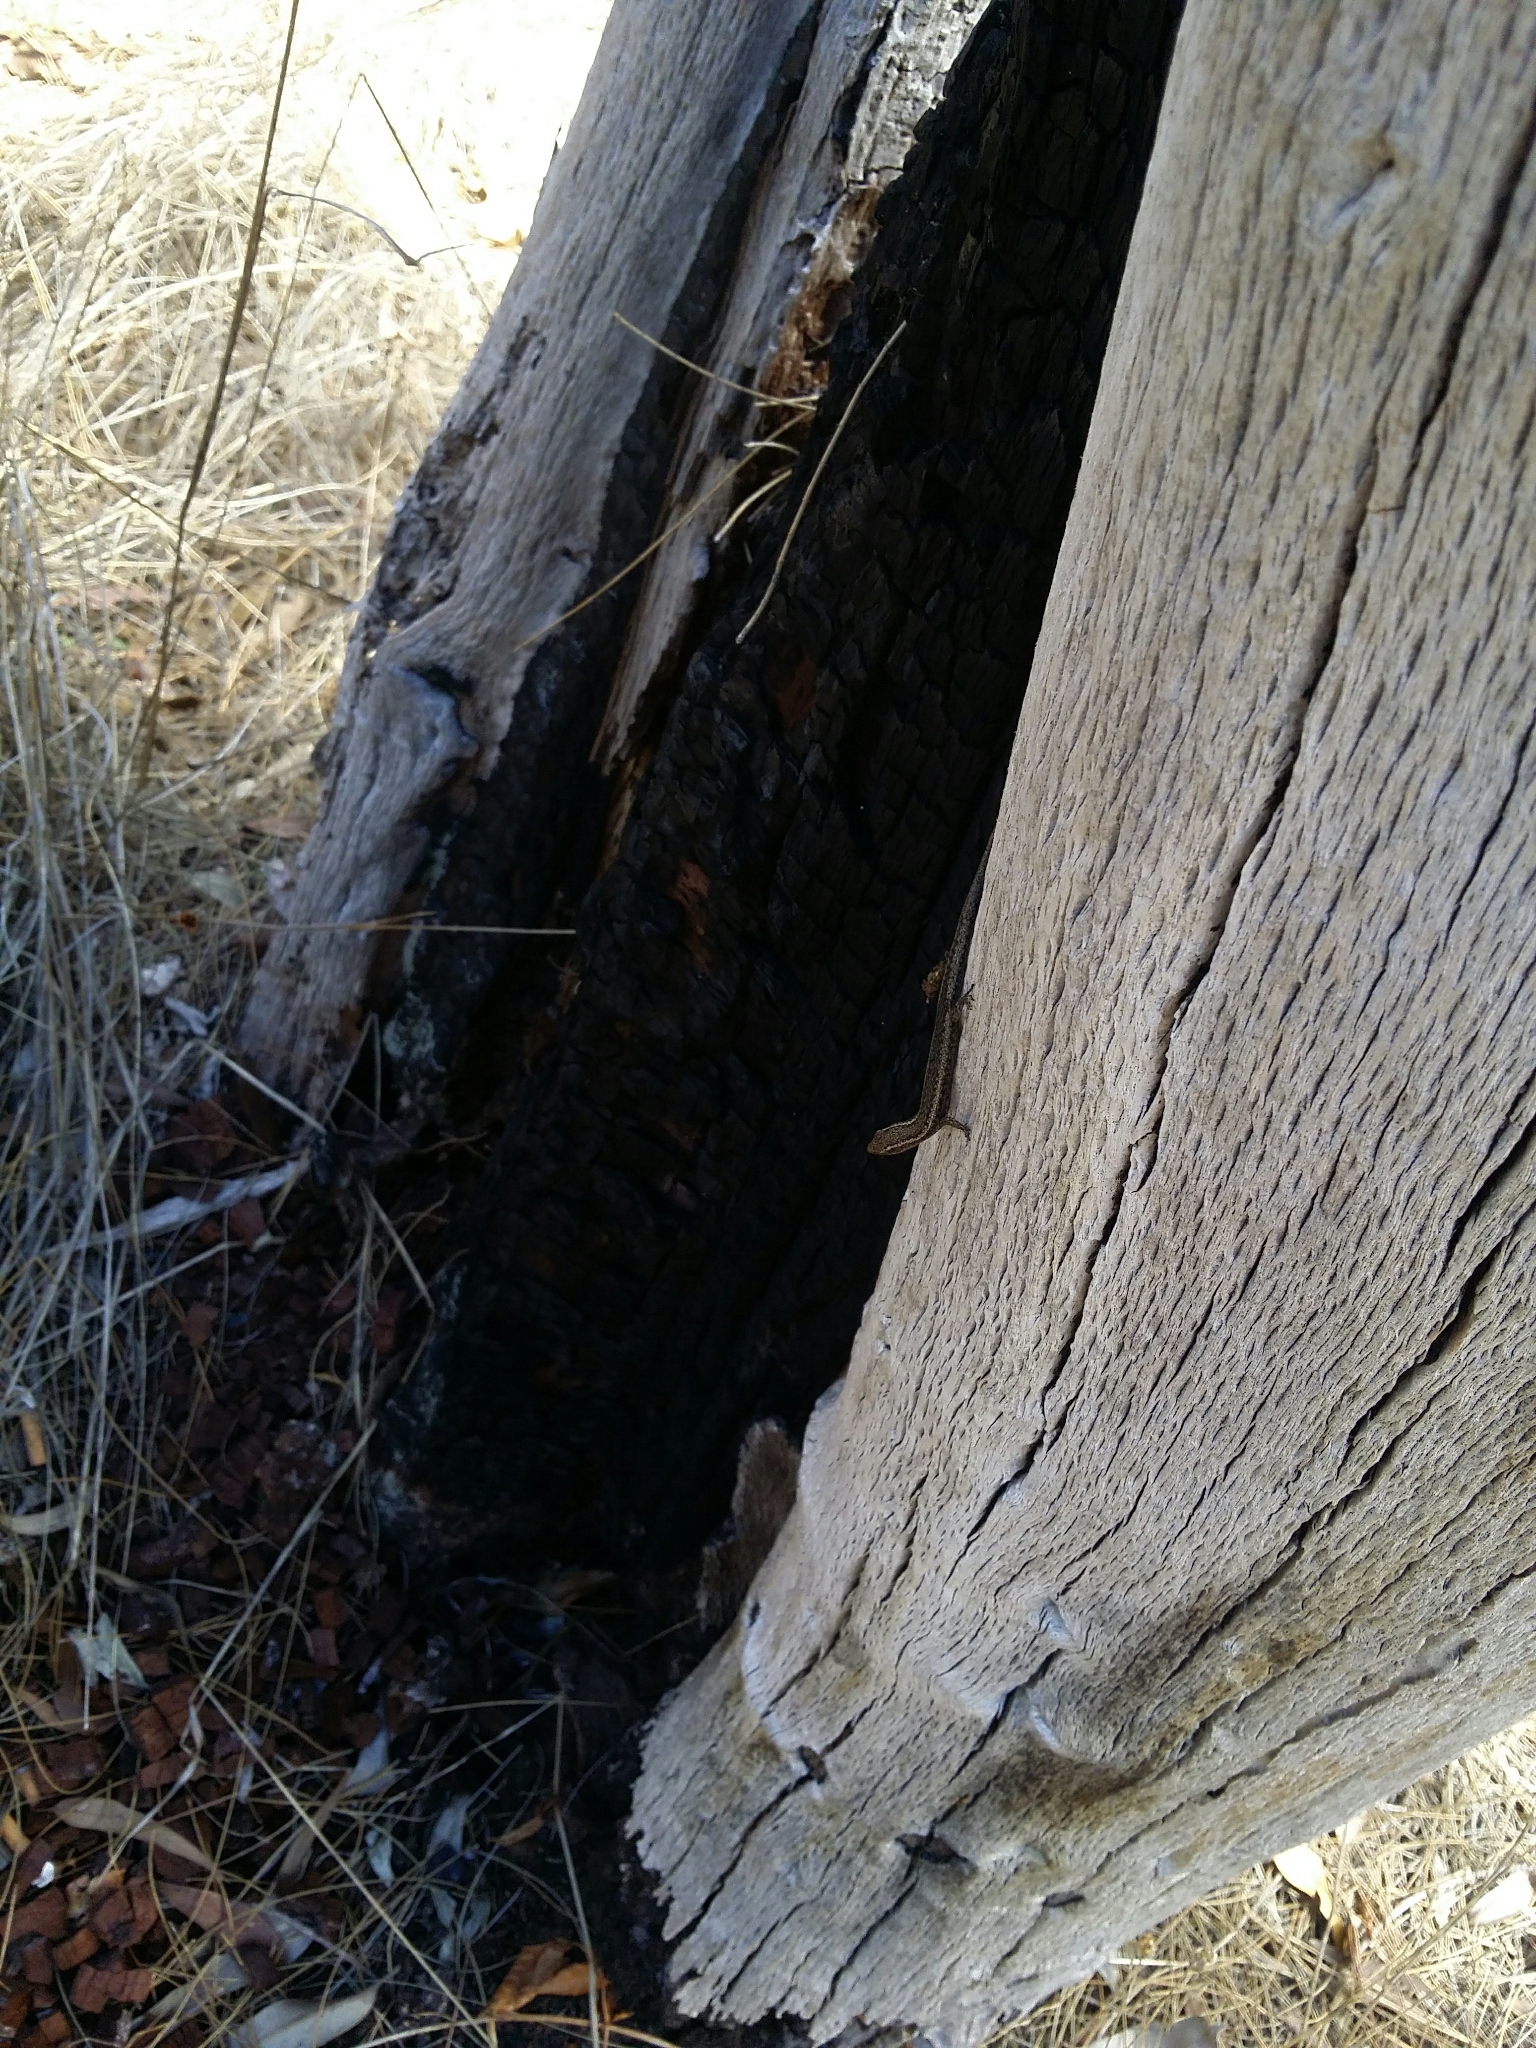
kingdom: Animalia
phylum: Chordata
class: Squamata
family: Scincidae
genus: Cryptoblepharus
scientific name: Cryptoblepharus buchananii
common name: Buchanan's snake-eyed skink
